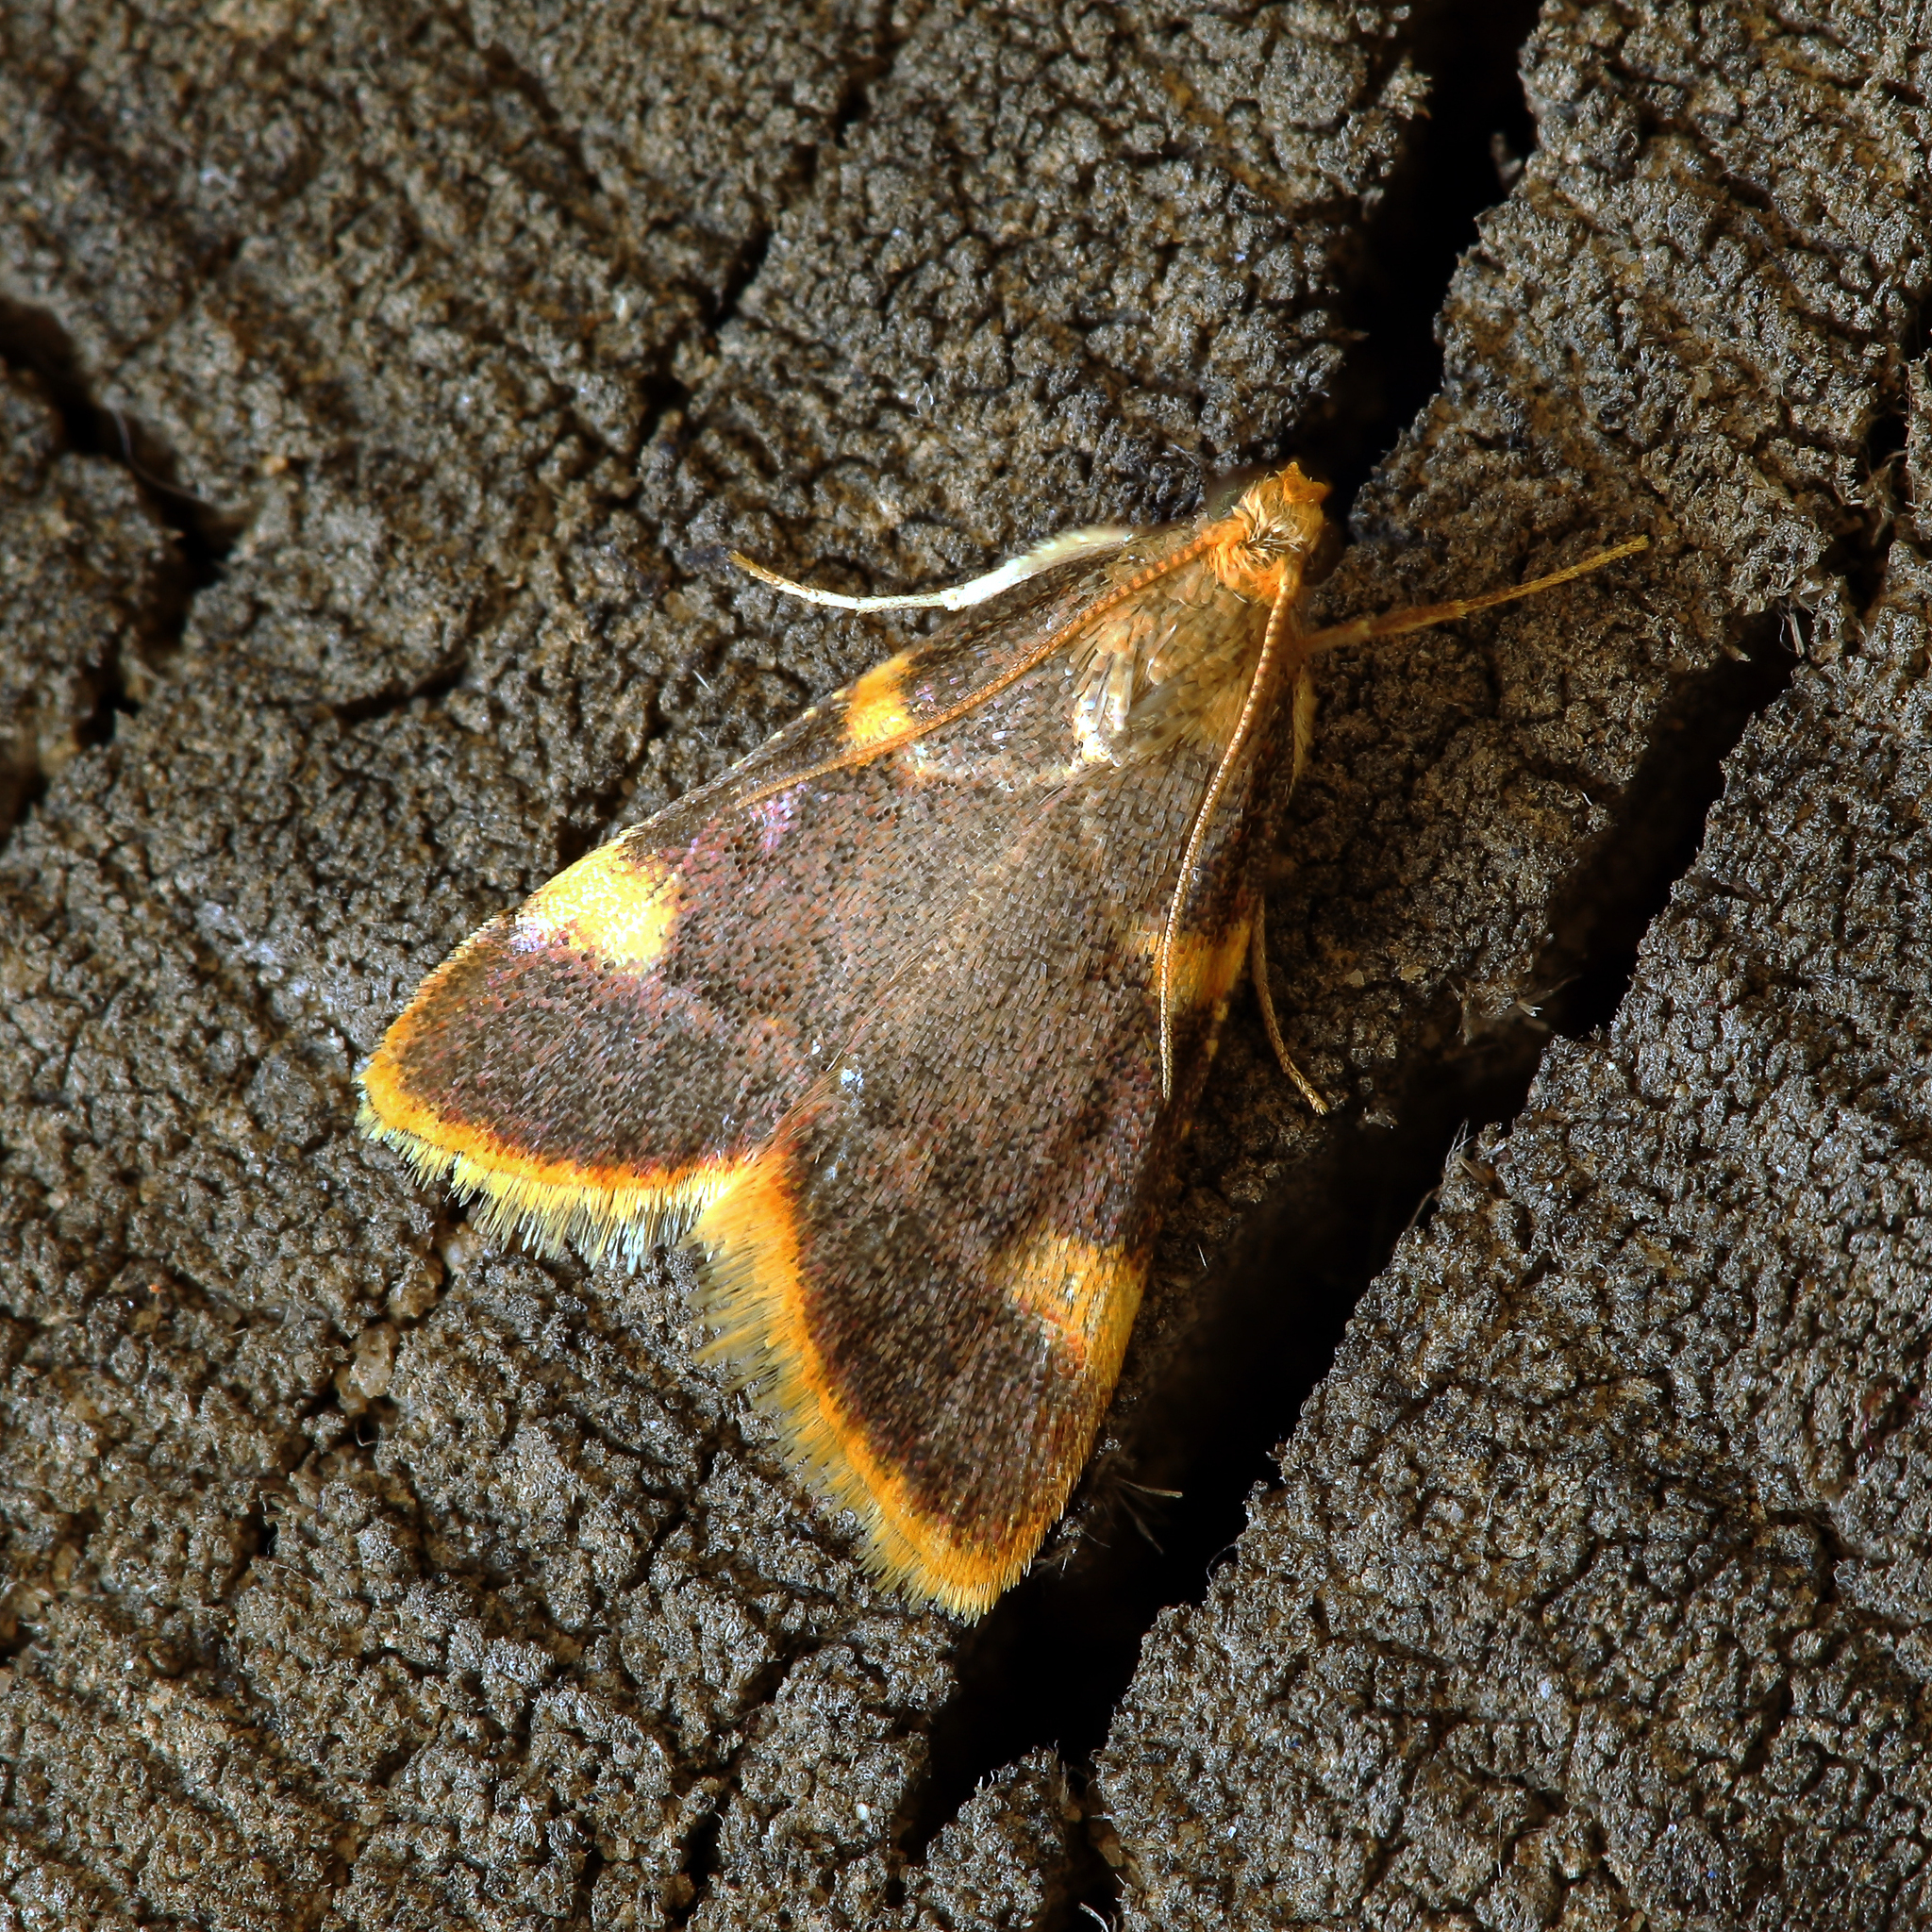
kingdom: Animalia
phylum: Arthropoda
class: Insecta
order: Lepidoptera
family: Pyralidae
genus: Hypsopygia
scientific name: Hypsopygia costalis
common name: Gold triangle
